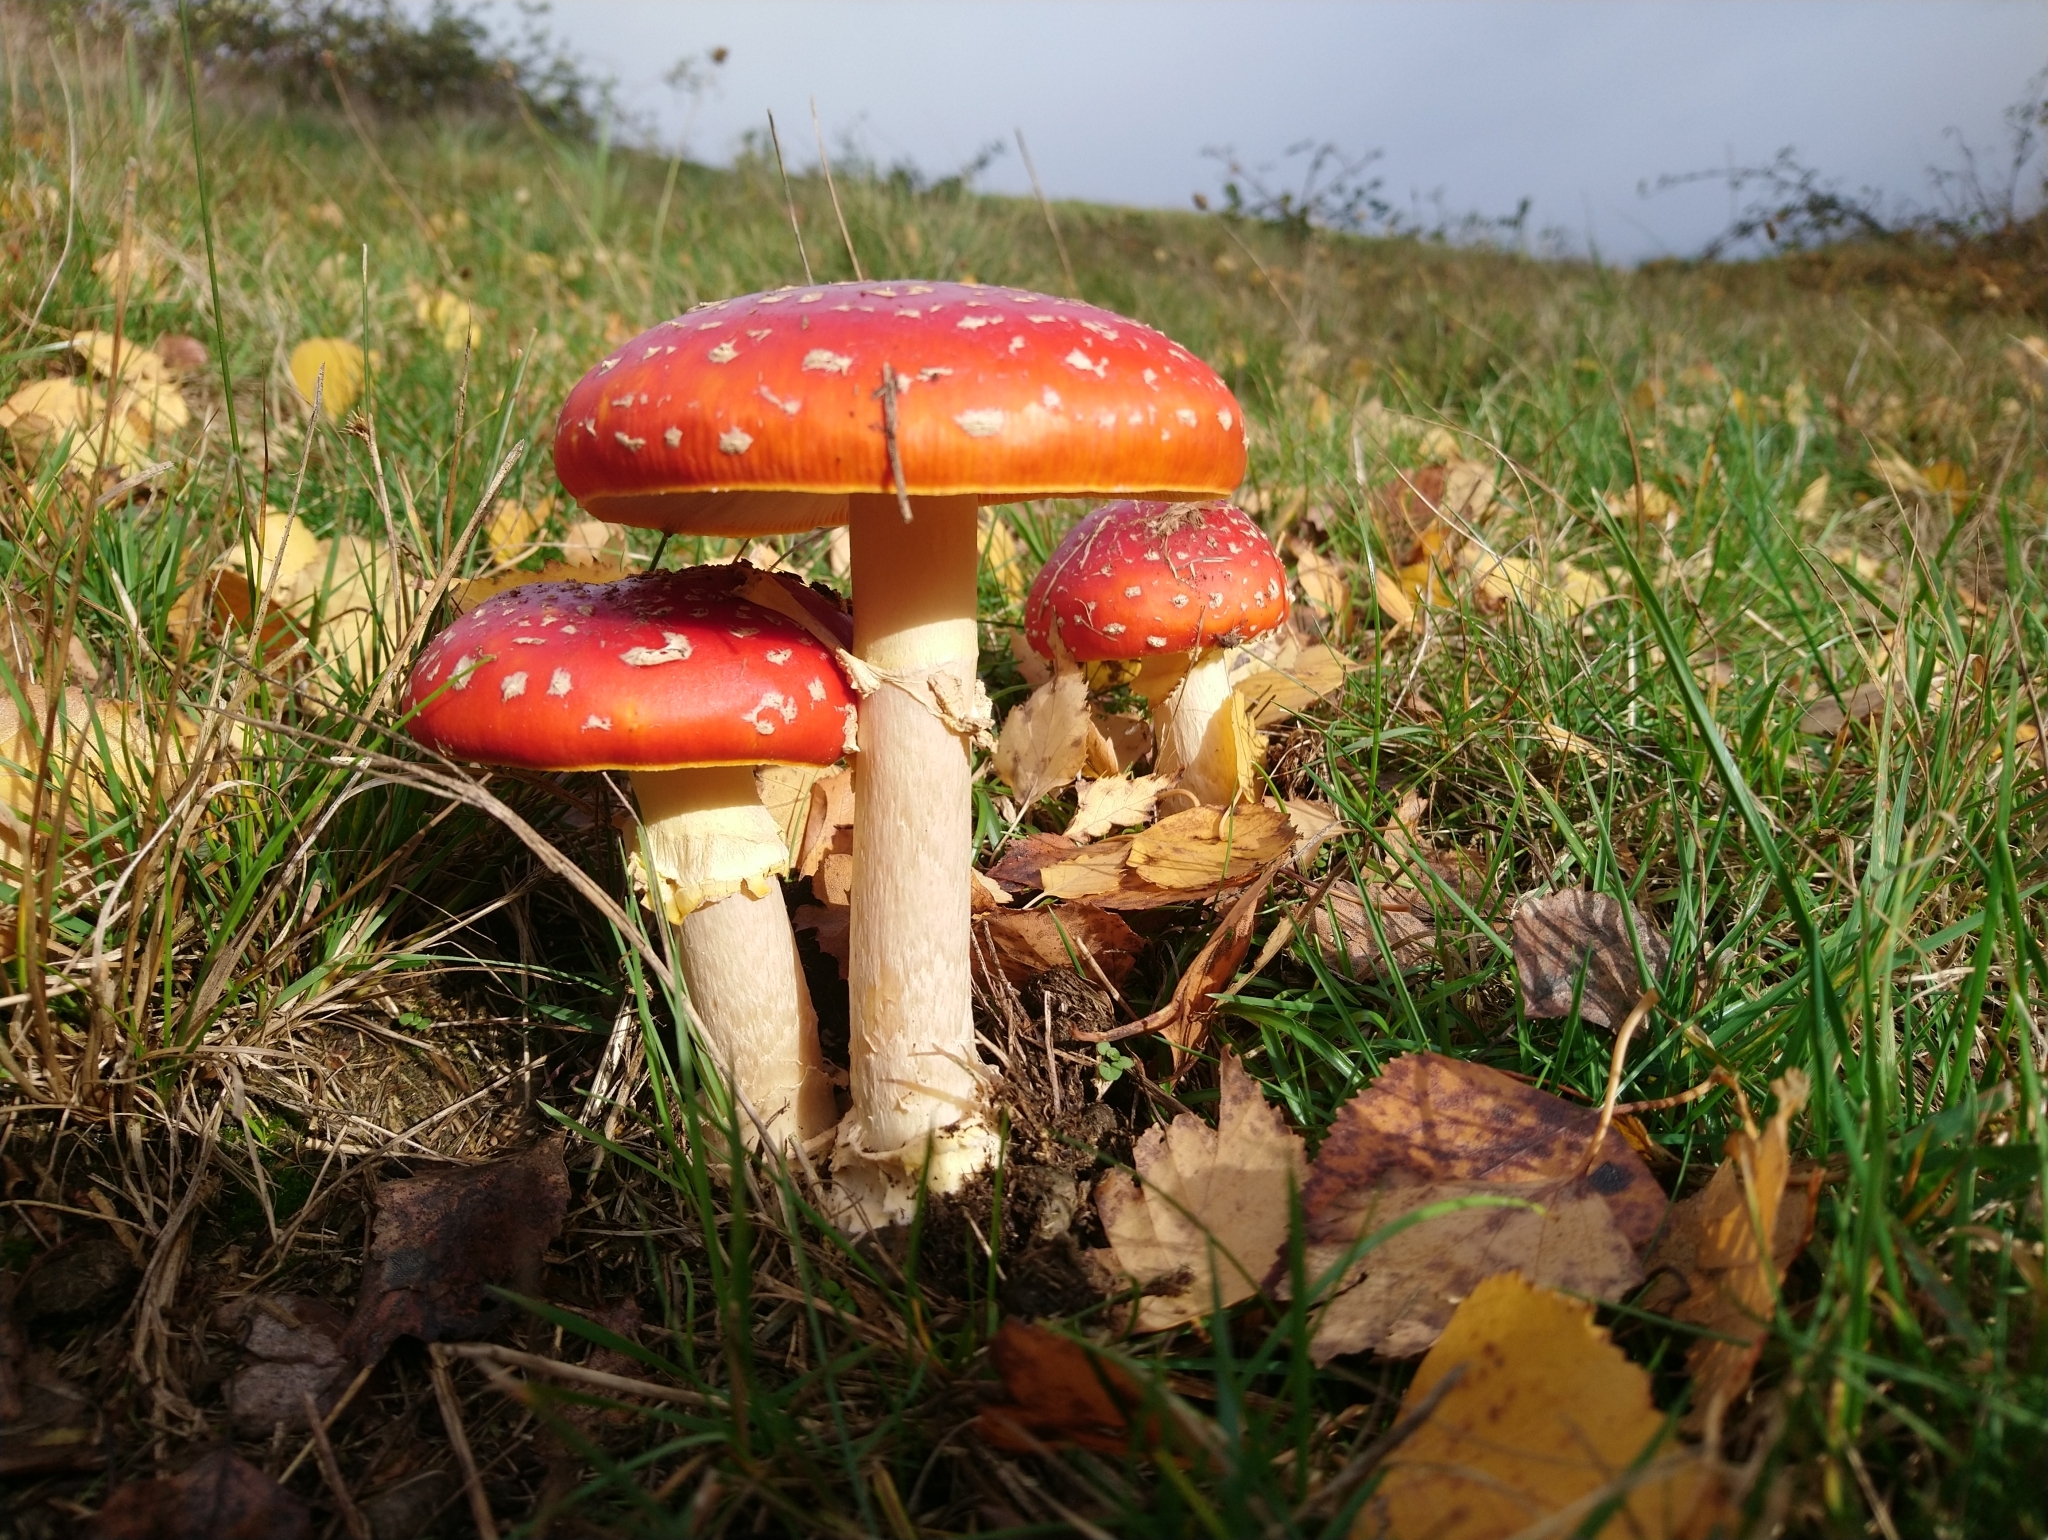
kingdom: Fungi
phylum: Basidiomycota
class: Agaricomycetes
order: Agaricales
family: Amanitaceae
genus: Amanita
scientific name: Amanita muscaria
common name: Fly agaric
